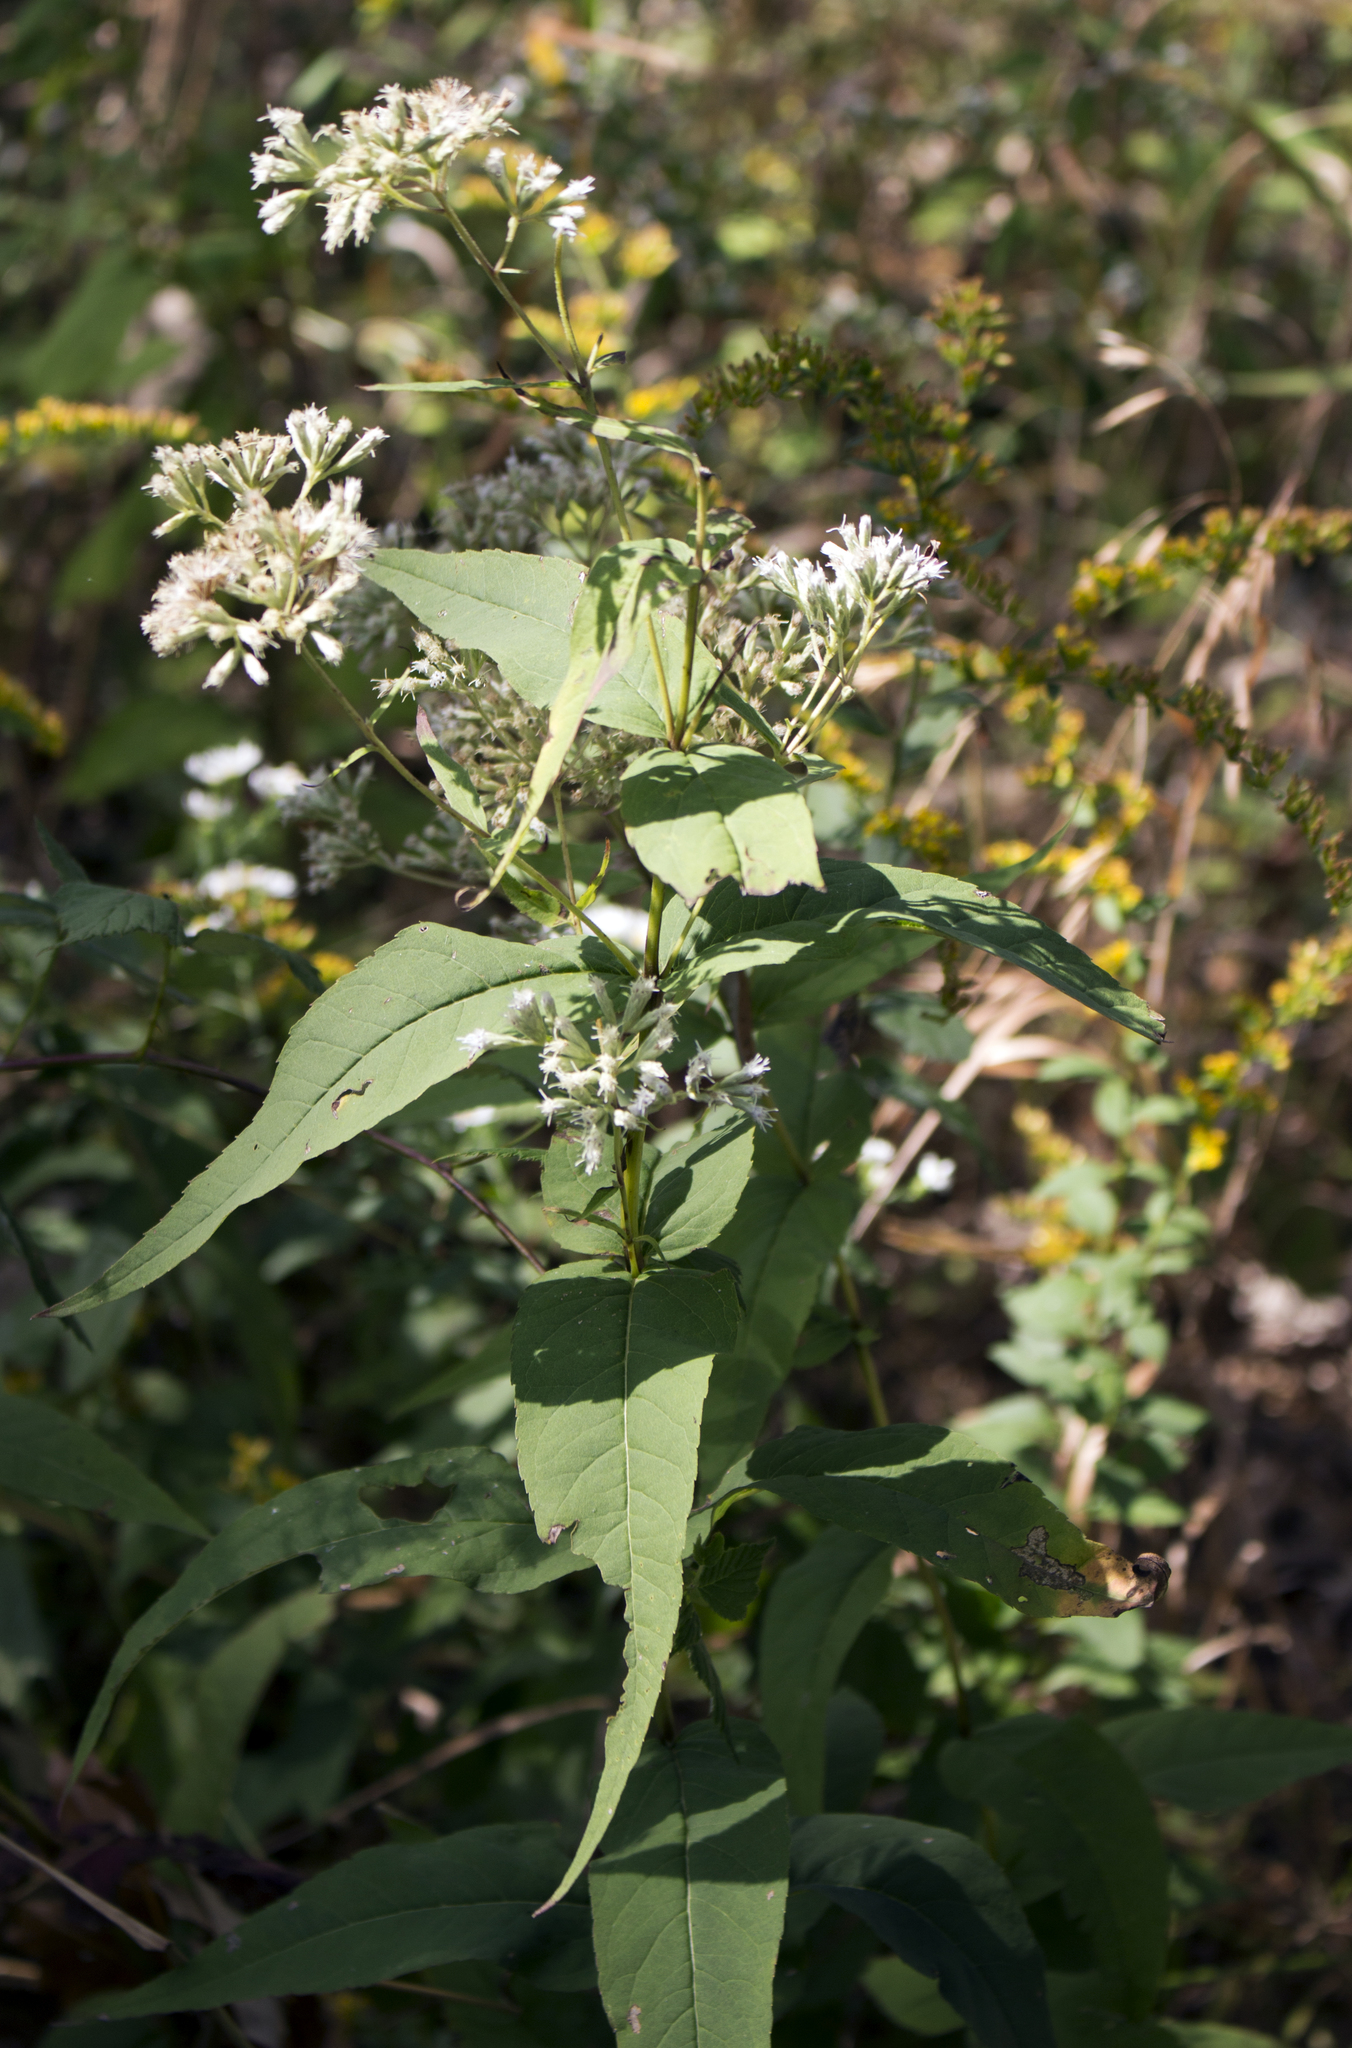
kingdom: Plantae
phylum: Tracheophyta
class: Magnoliopsida
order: Asterales
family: Asteraceae
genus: Eupatorium
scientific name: Eupatorium sessilifolium
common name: Upland boneset
